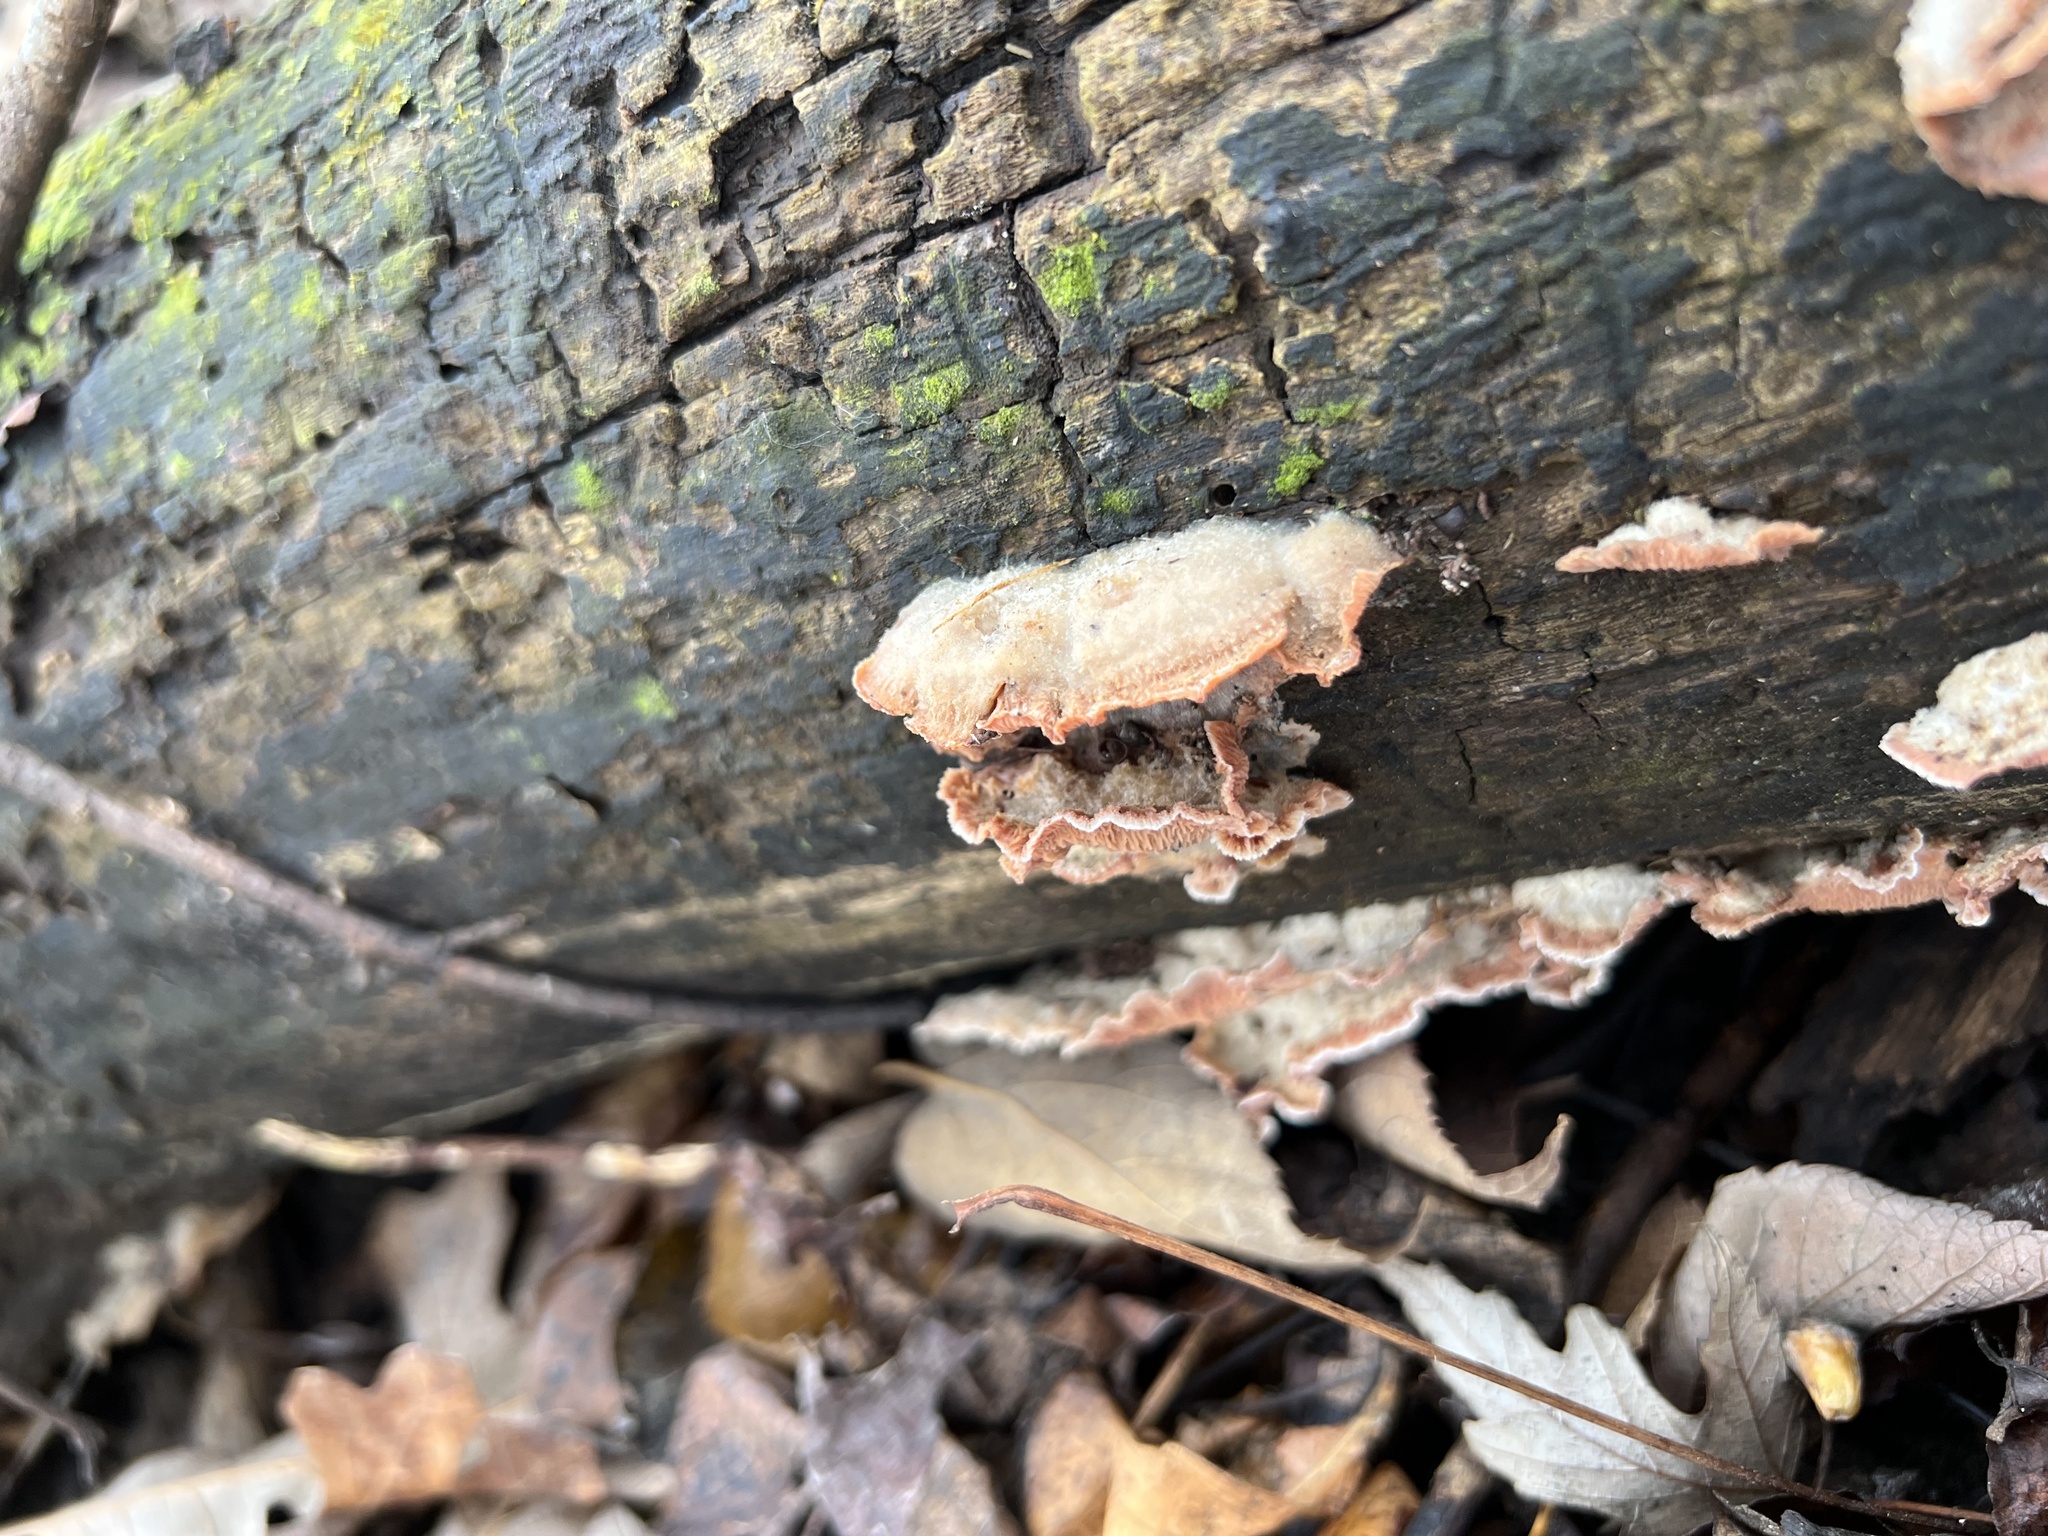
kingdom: Fungi
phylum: Basidiomycota
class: Agaricomycetes
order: Polyporales
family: Meruliaceae
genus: Phlebia
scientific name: Phlebia tremellosa
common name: Jelly rot
